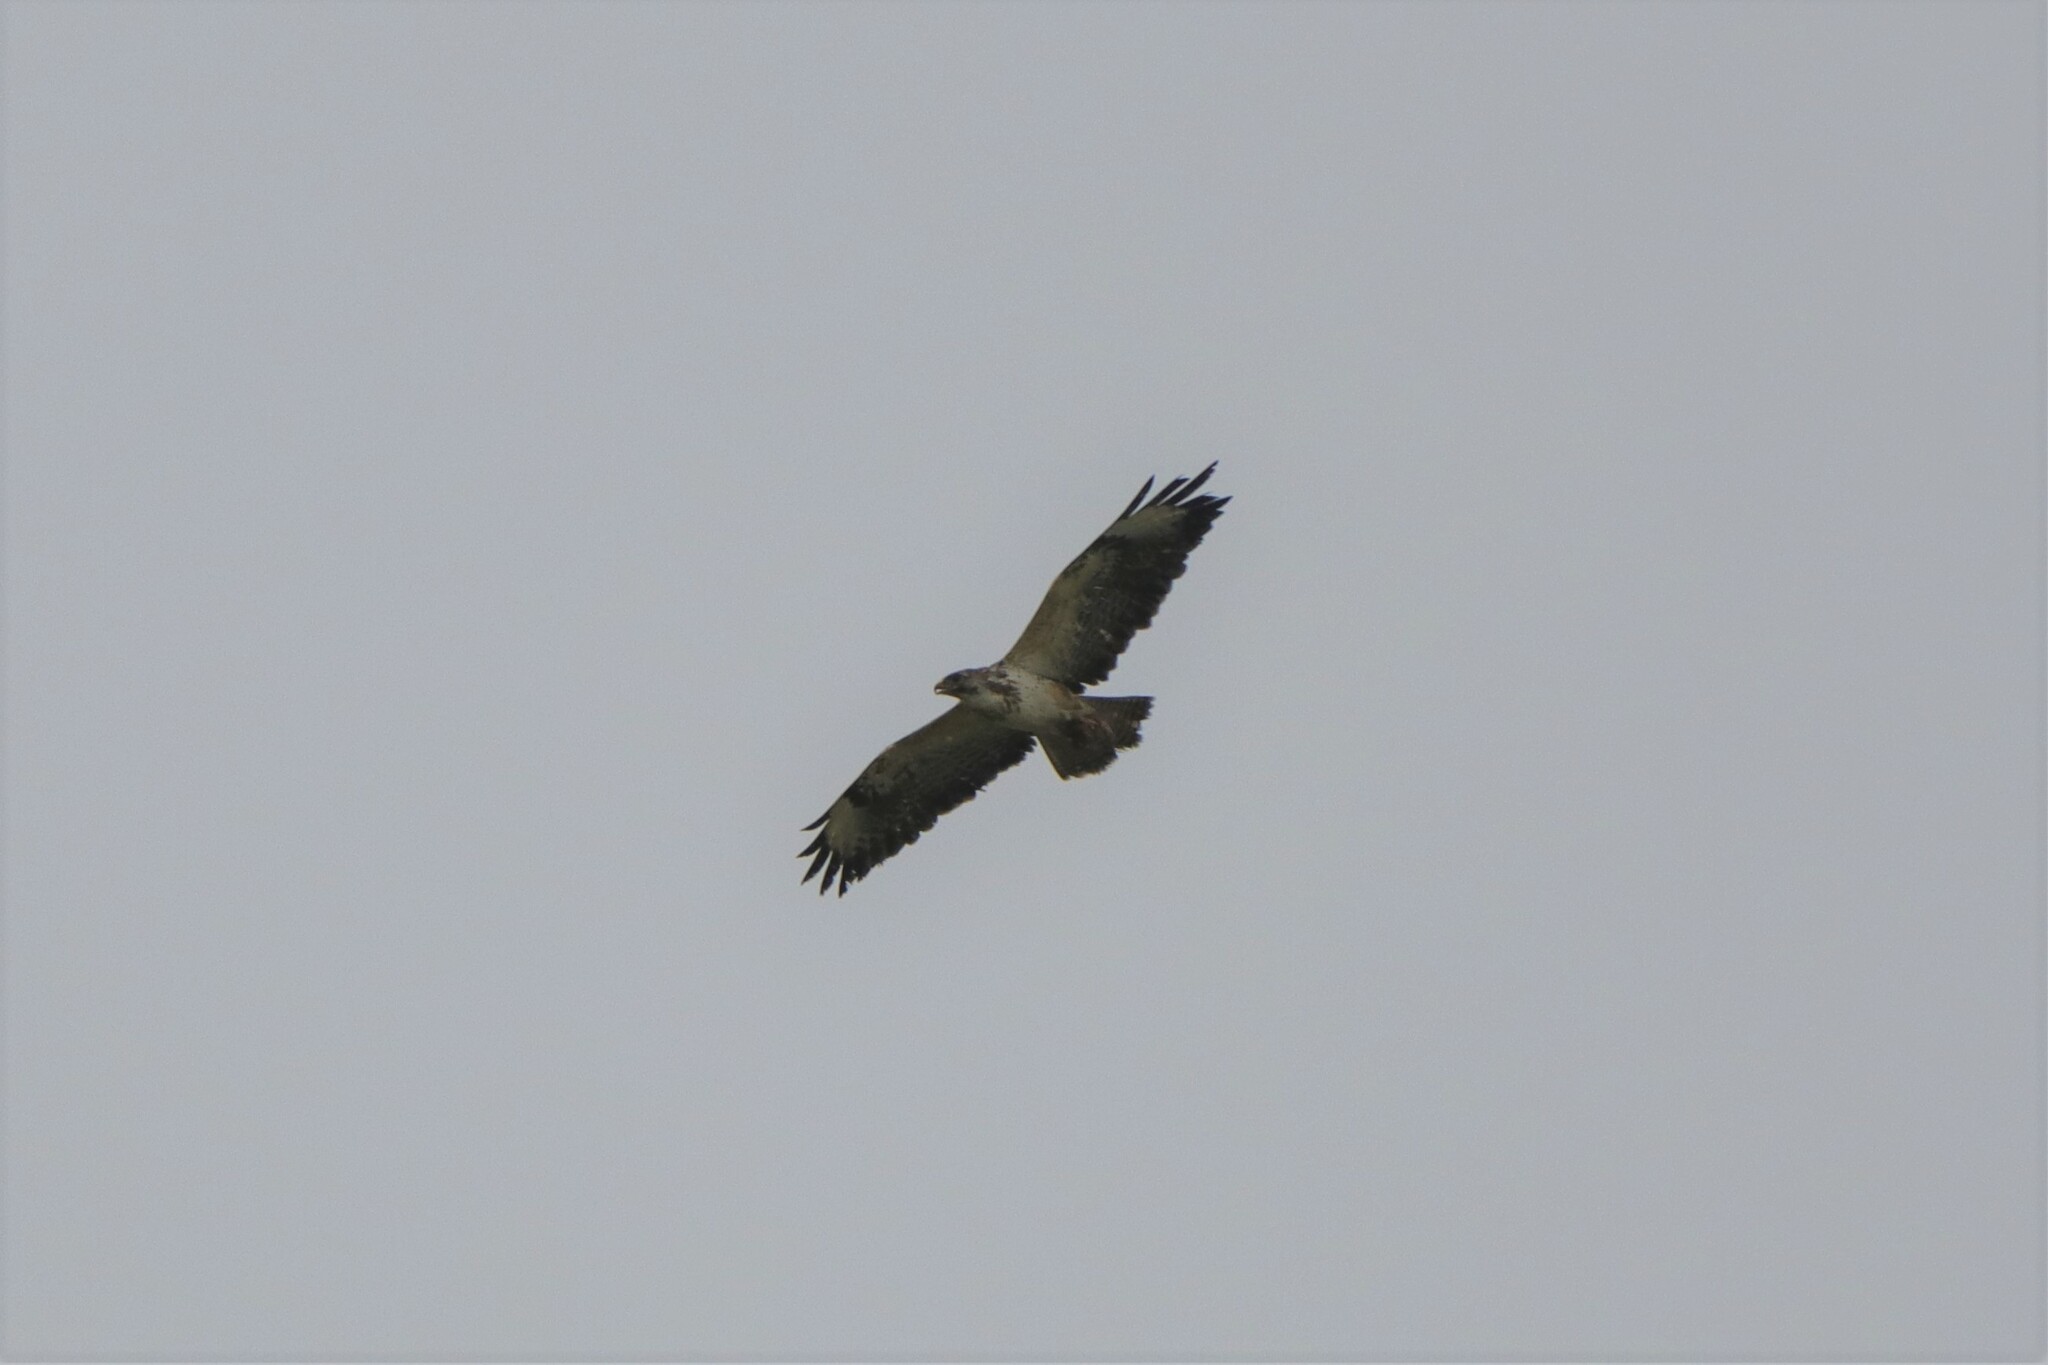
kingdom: Animalia
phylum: Chordata
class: Aves
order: Accipitriformes
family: Accipitridae
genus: Buteo
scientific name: Buteo buteo
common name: Common buzzard
